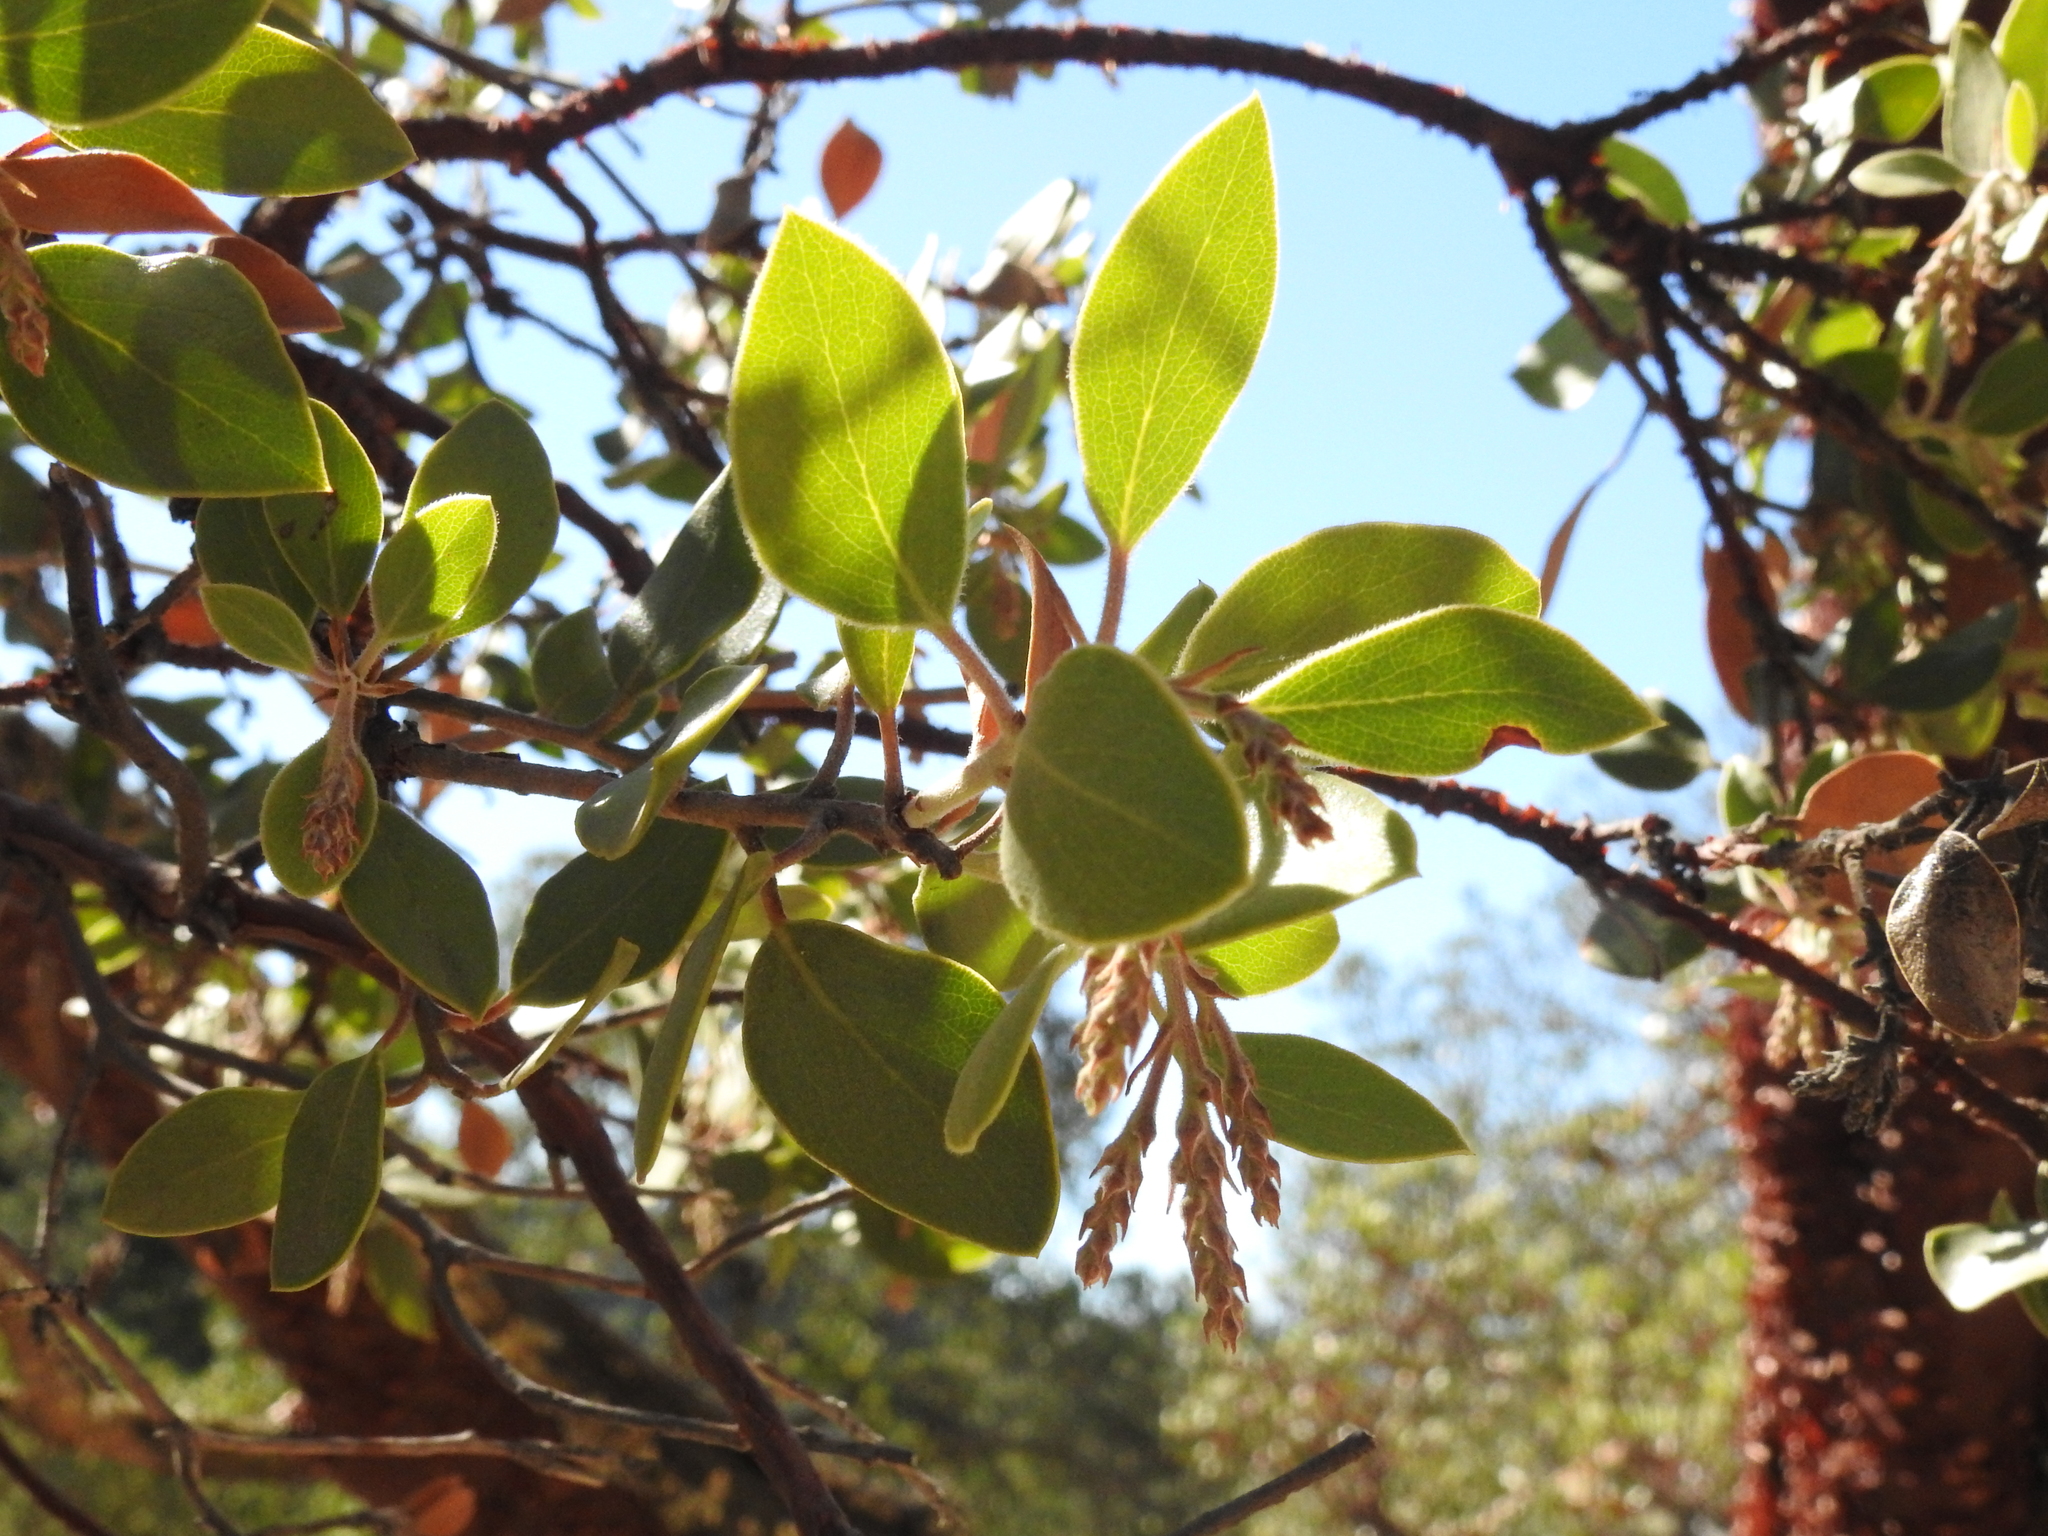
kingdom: Plantae
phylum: Tracheophyta
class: Magnoliopsida
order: Ericales
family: Ericaceae
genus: Arctostaphylos
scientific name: Arctostaphylos manzanita
